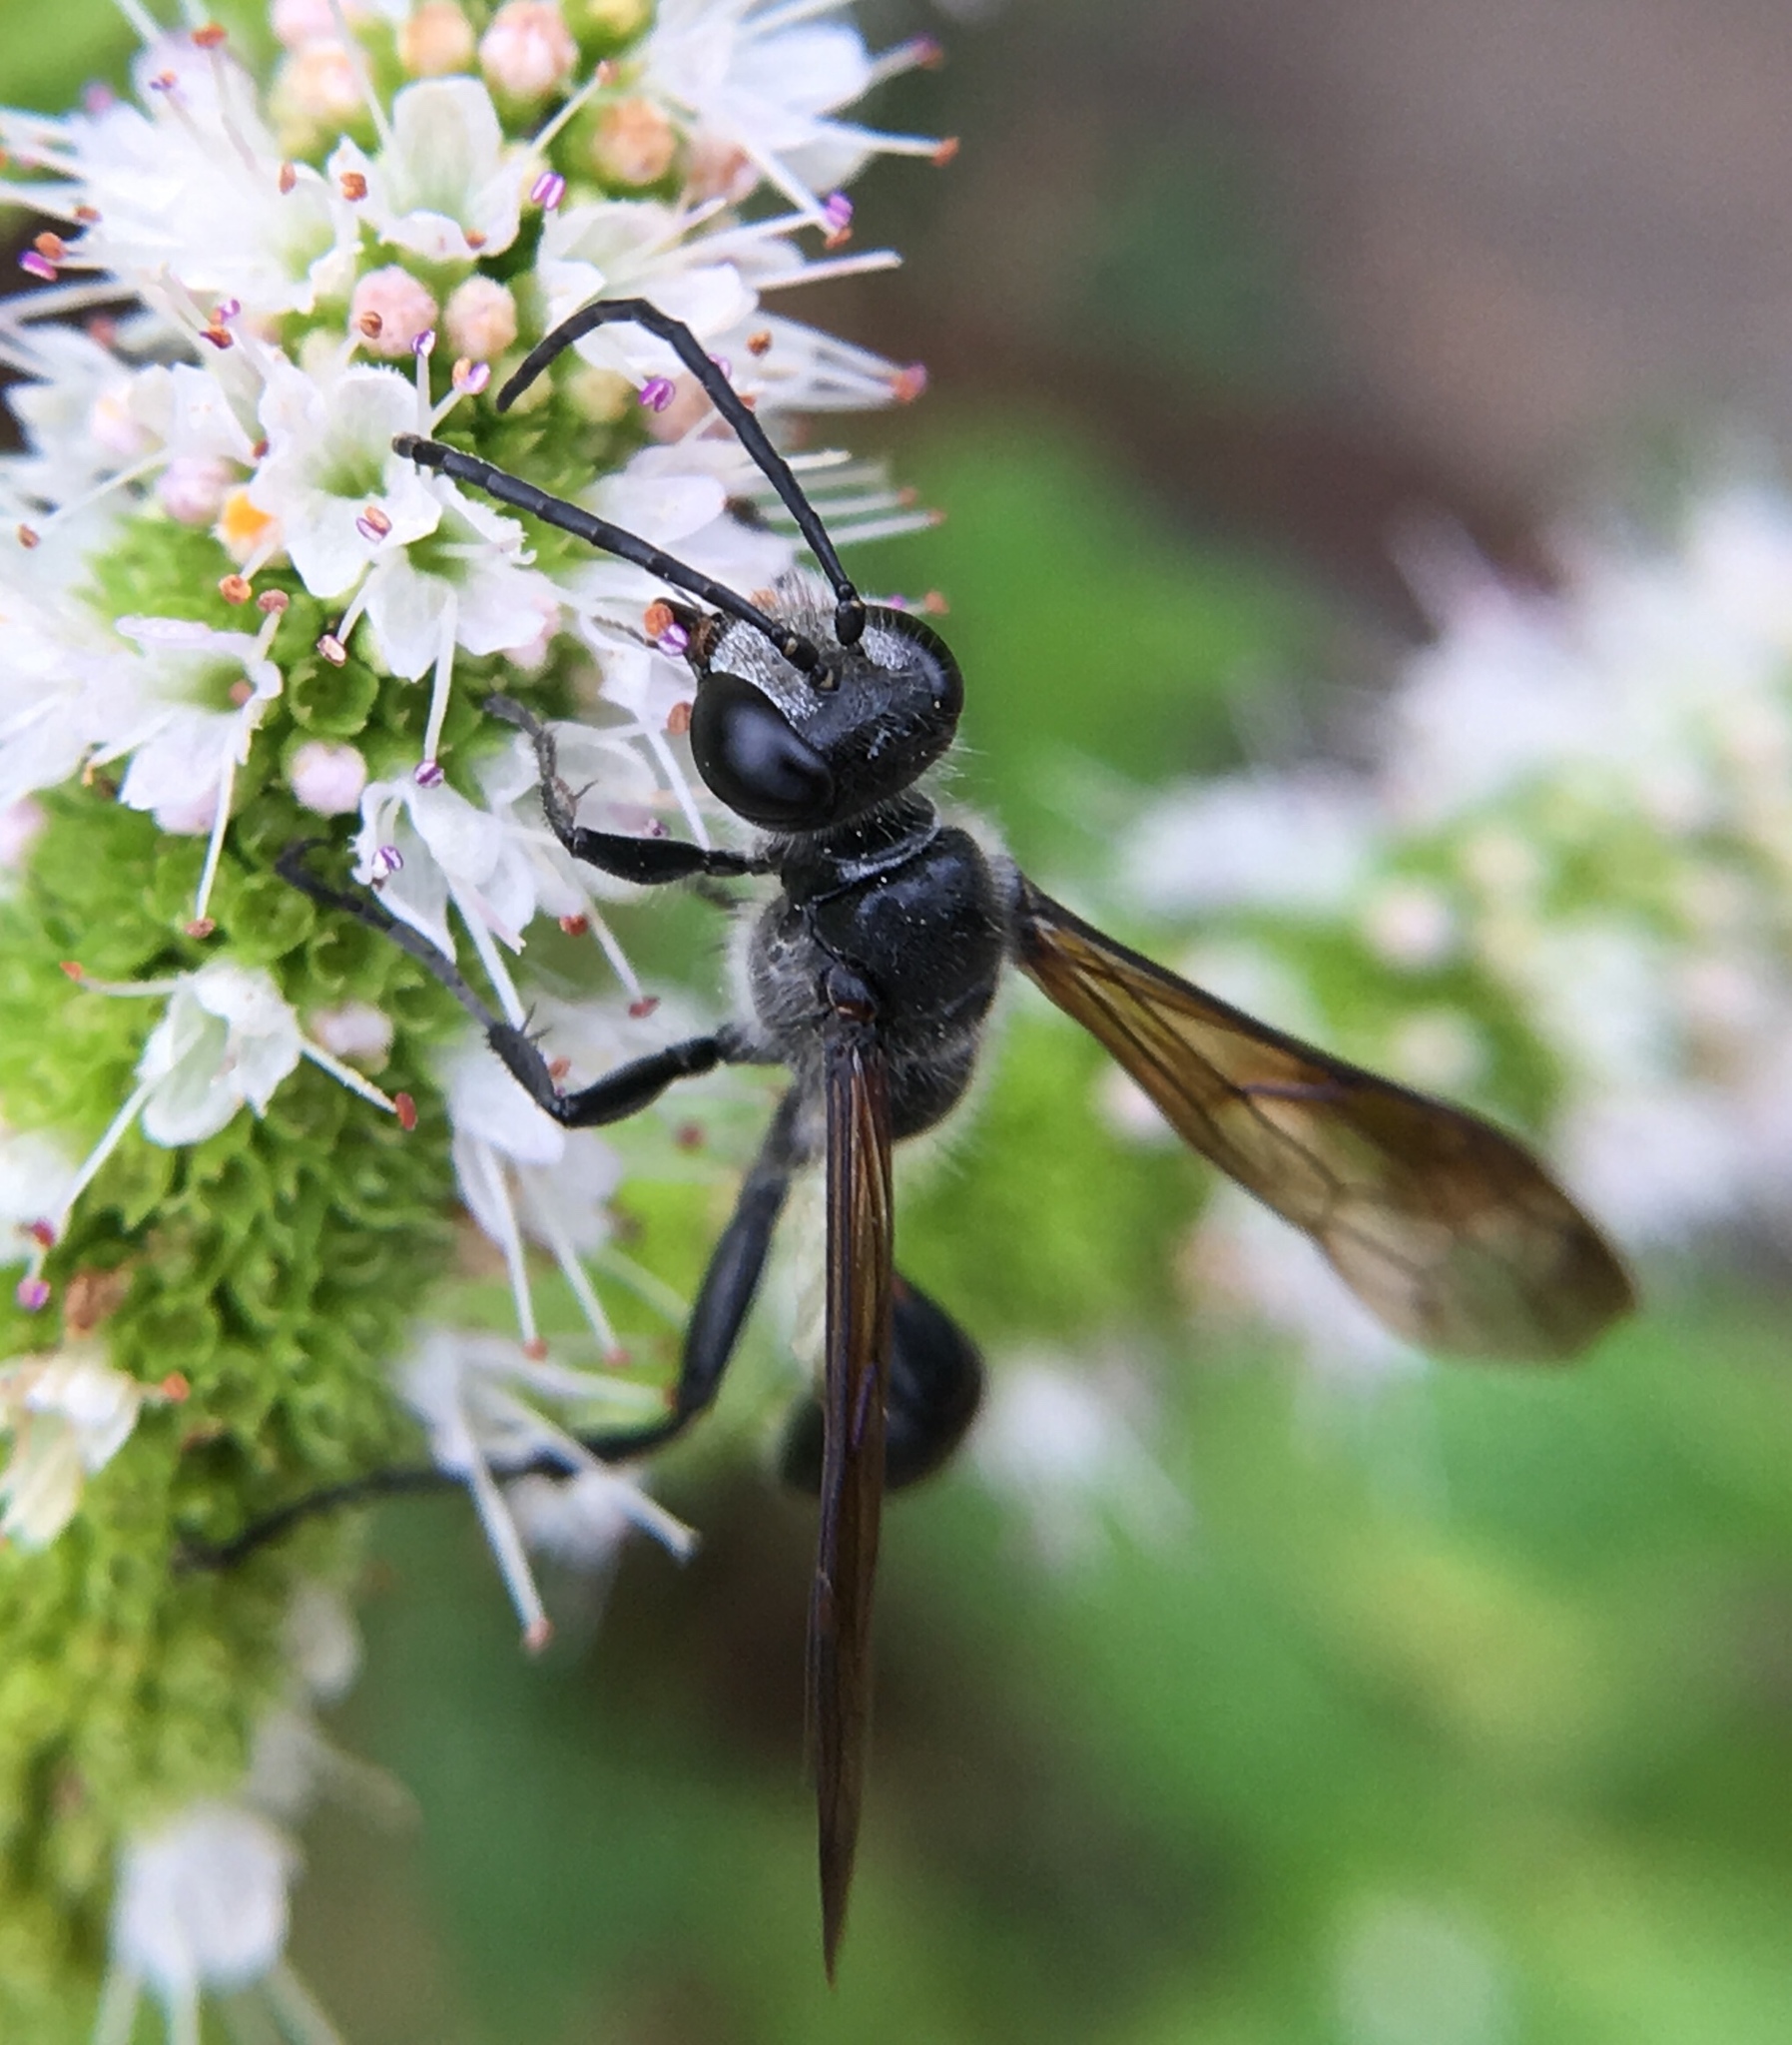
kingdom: Animalia
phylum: Arthropoda
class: Insecta
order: Hymenoptera
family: Sphecidae
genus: Isodontia
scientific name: Isodontia mexicana
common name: Mud dauber
